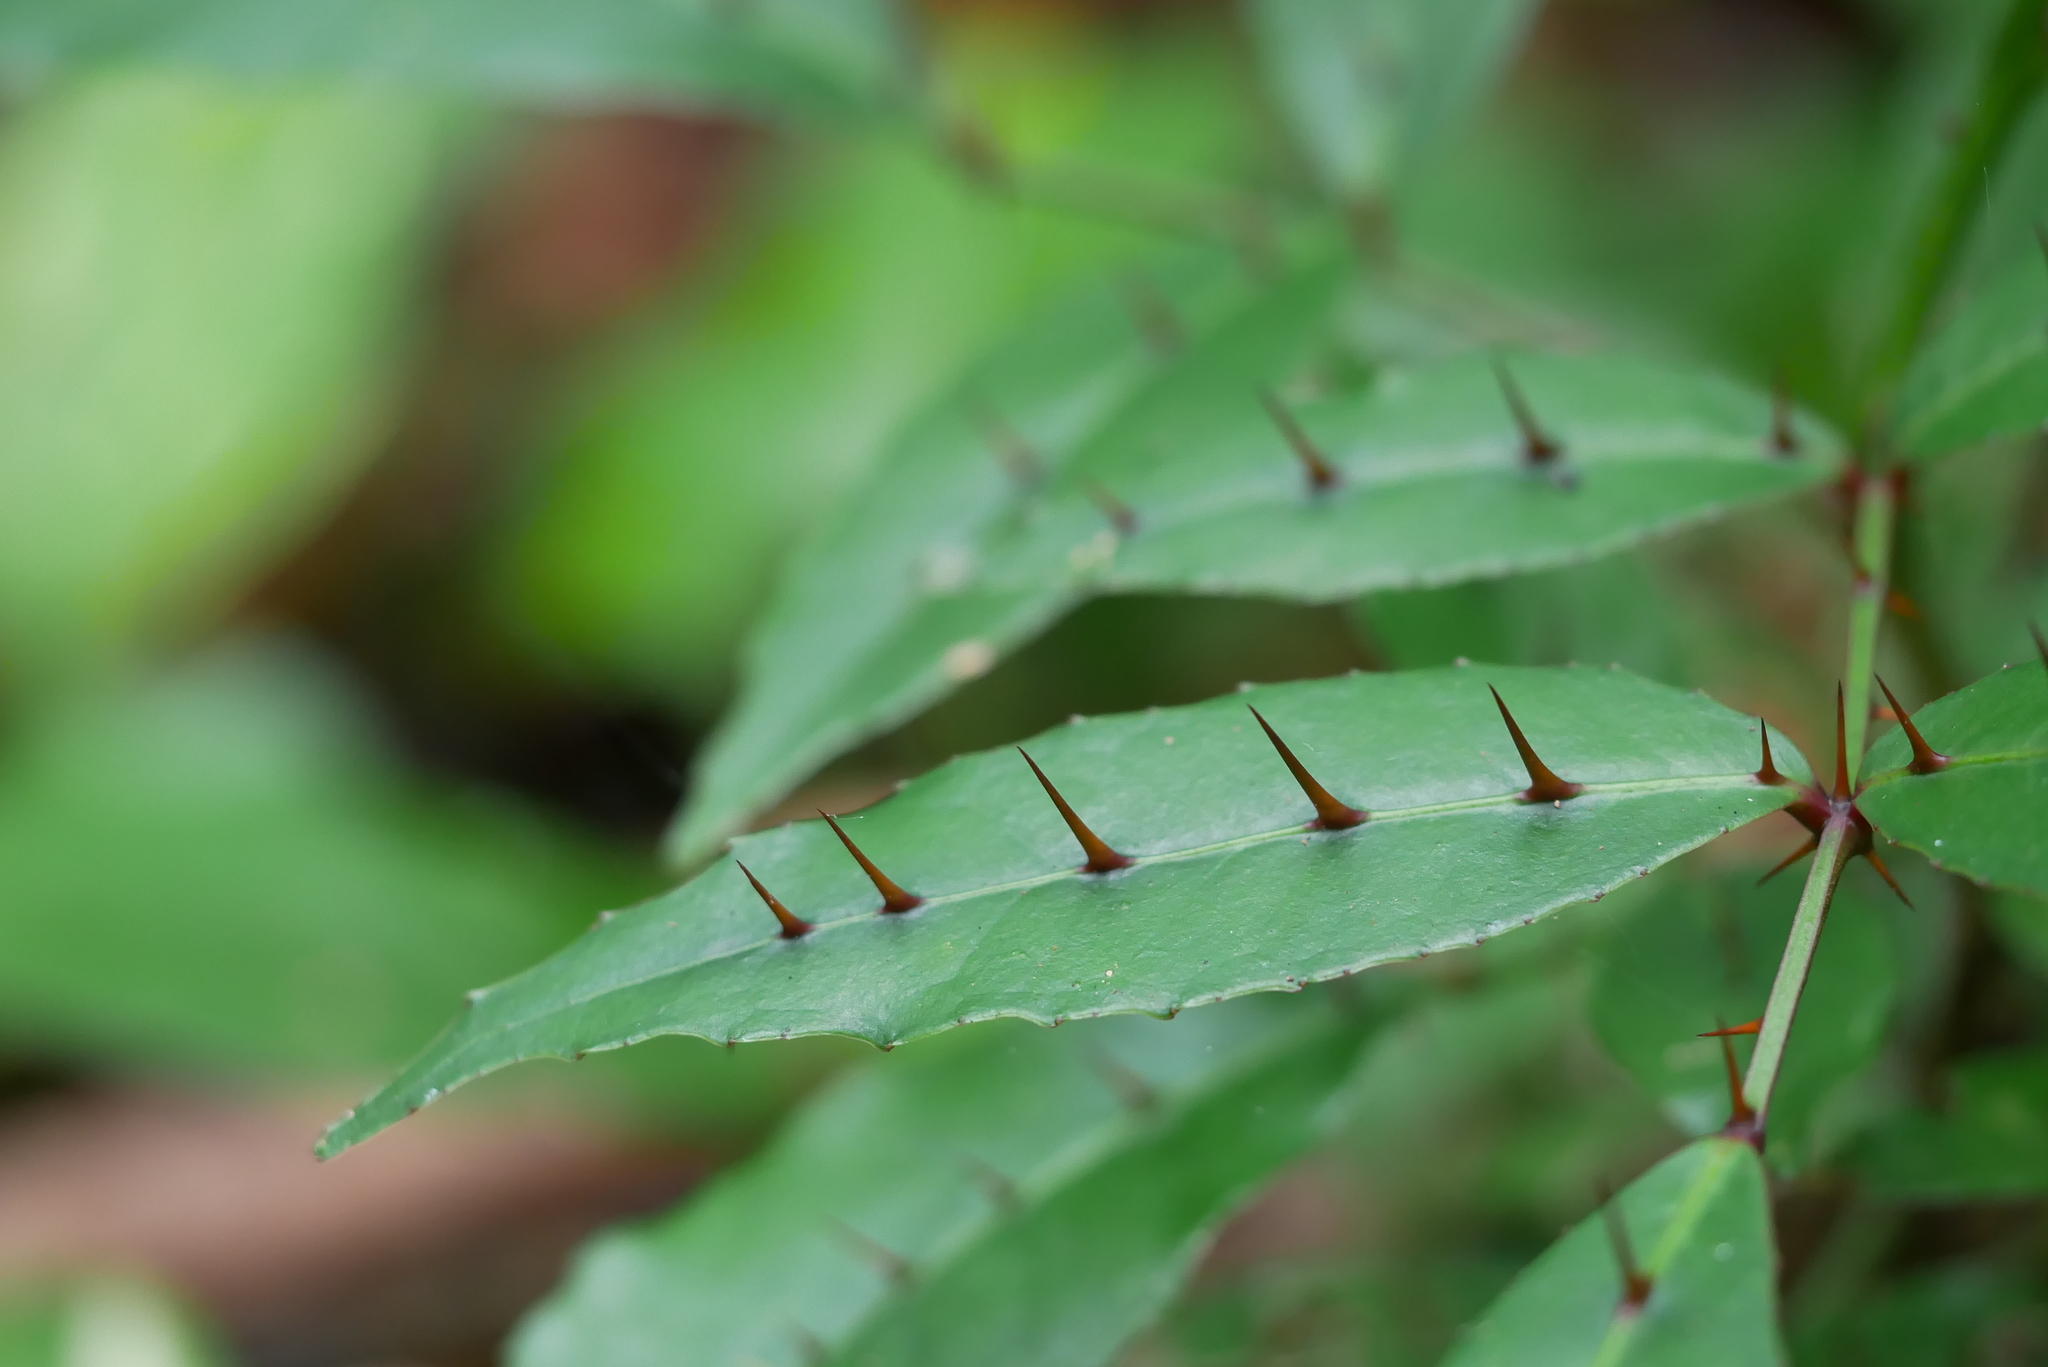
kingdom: Plantae
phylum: Tracheophyta
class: Magnoliopsida
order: Sapindales
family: Rutaceae
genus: Zanthoxylum
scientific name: Zanthoxylum nitidum
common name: Shiny-leaf prickly-ash
